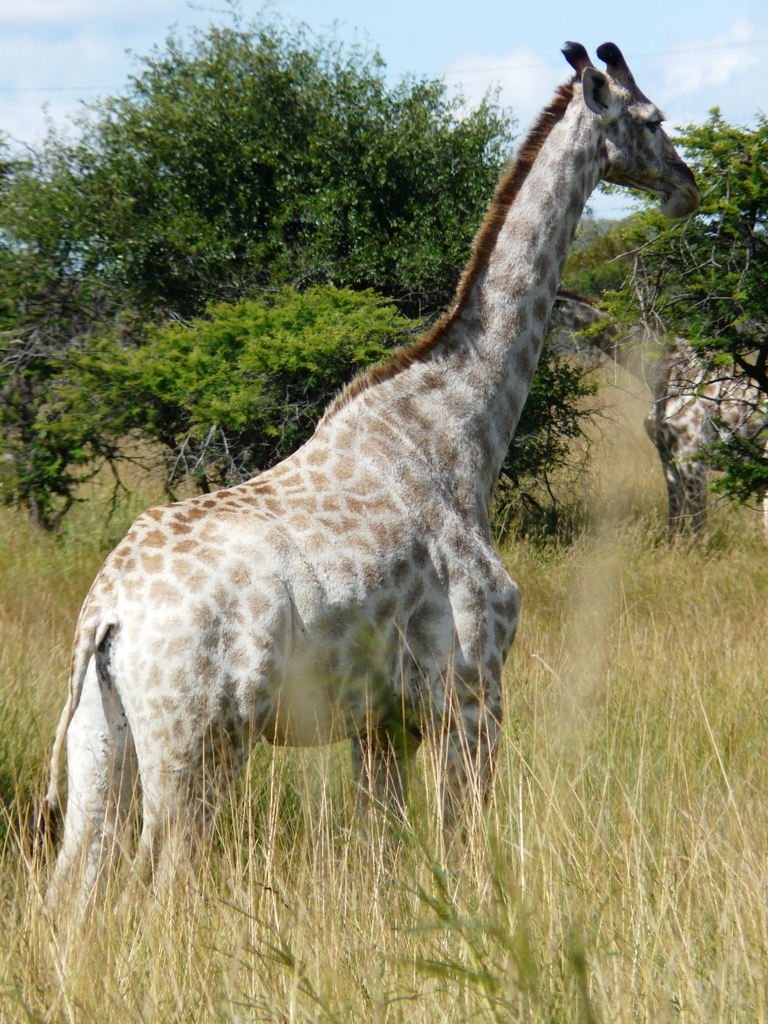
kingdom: Animalia
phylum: Chordata
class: Mammalia
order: Artiodactyla
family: Giraffidae
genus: Giraffa
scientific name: Giraffa giraffa
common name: Southern giraffe
